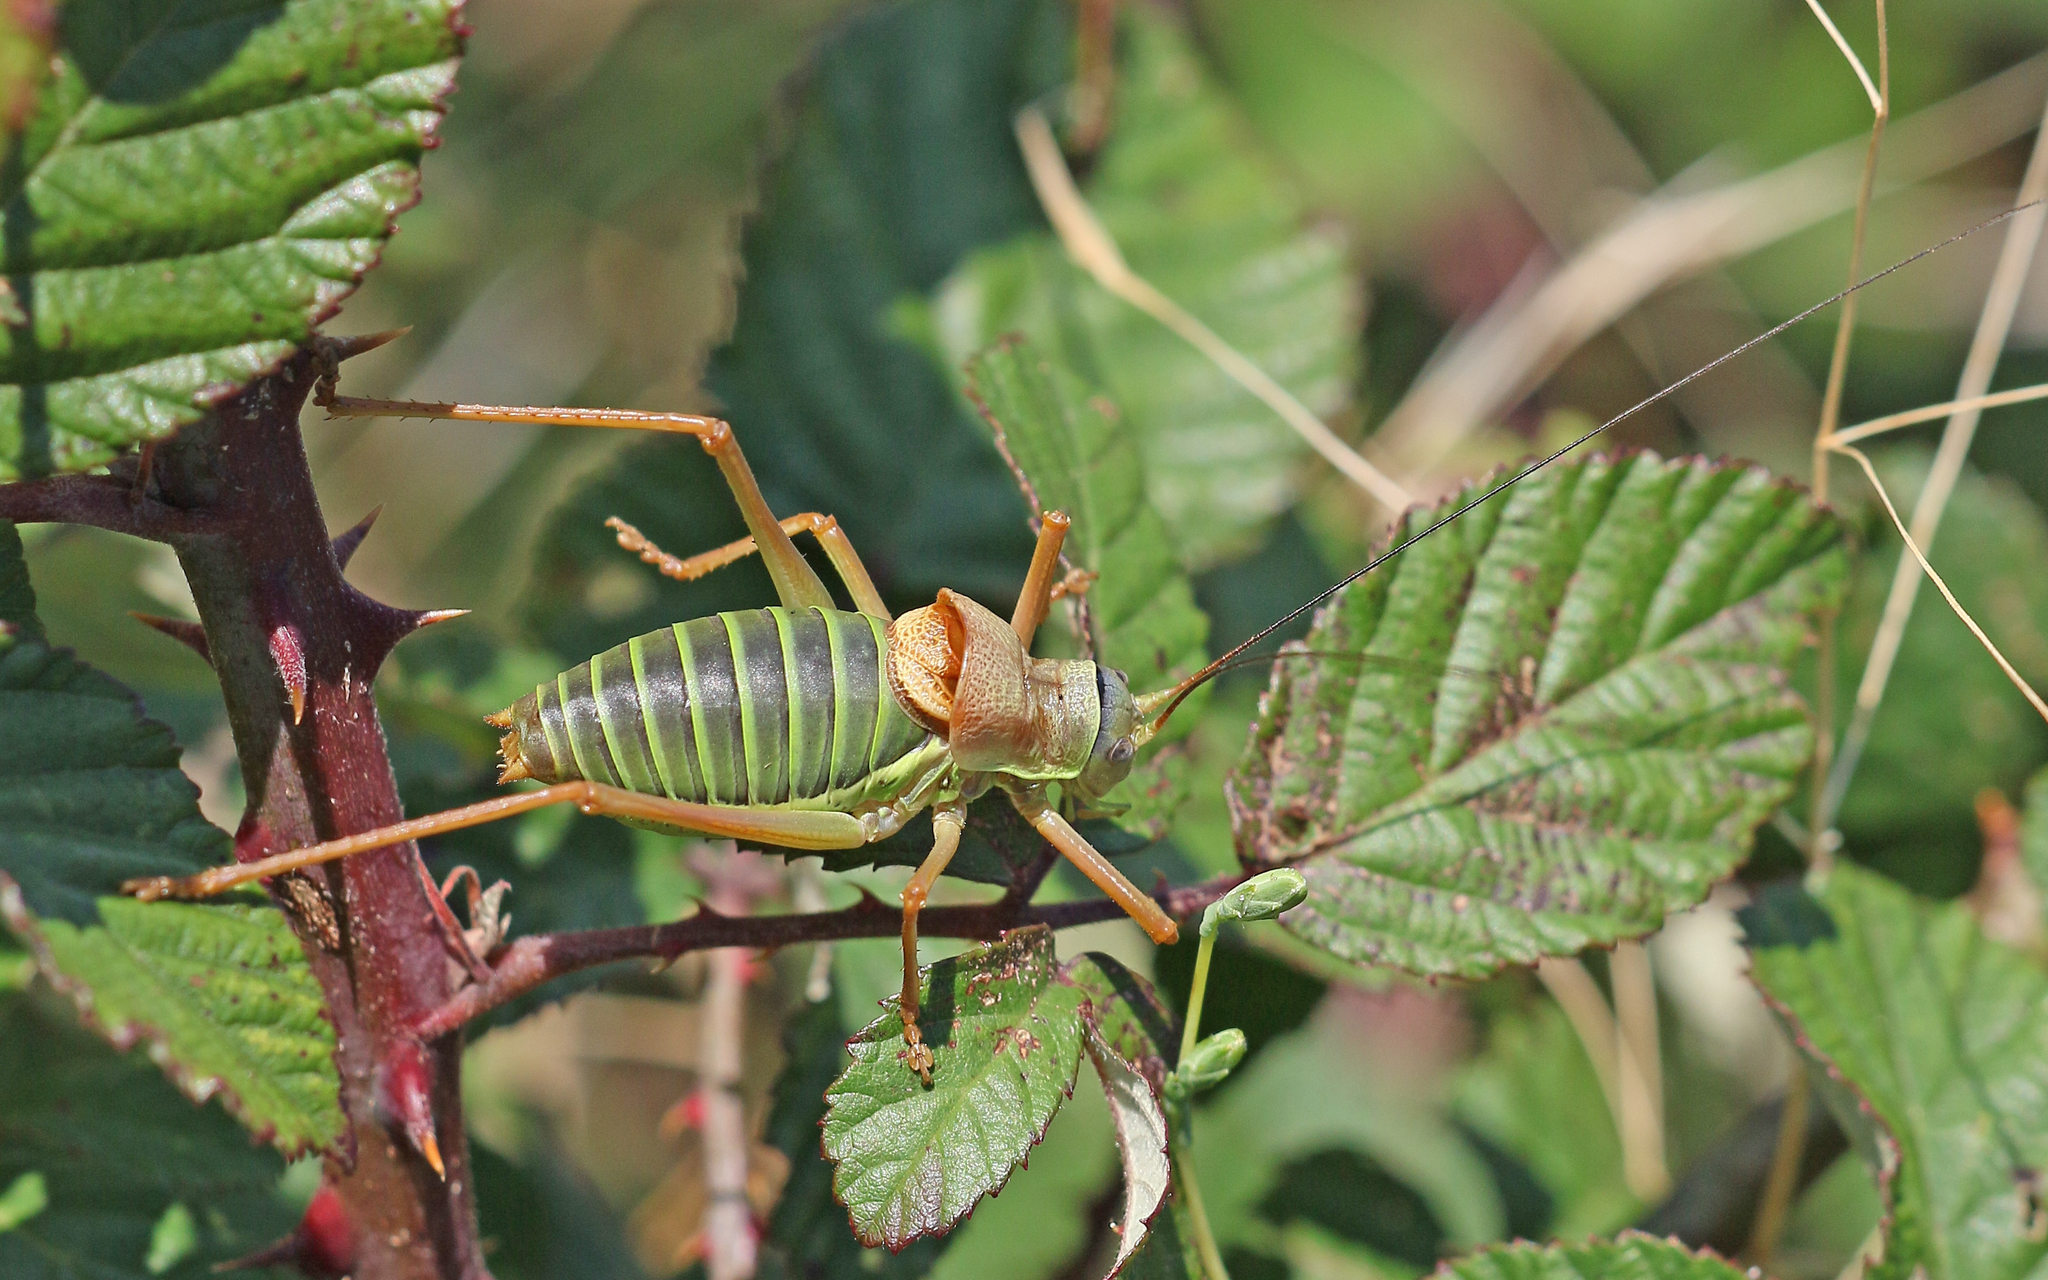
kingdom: Animalia
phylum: Arthropoda
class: Insecta
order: Orthoptera
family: Tettigoniidae
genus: Ephippiger
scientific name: Ephippiger diurnus
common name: Western saddle bush-cricket
